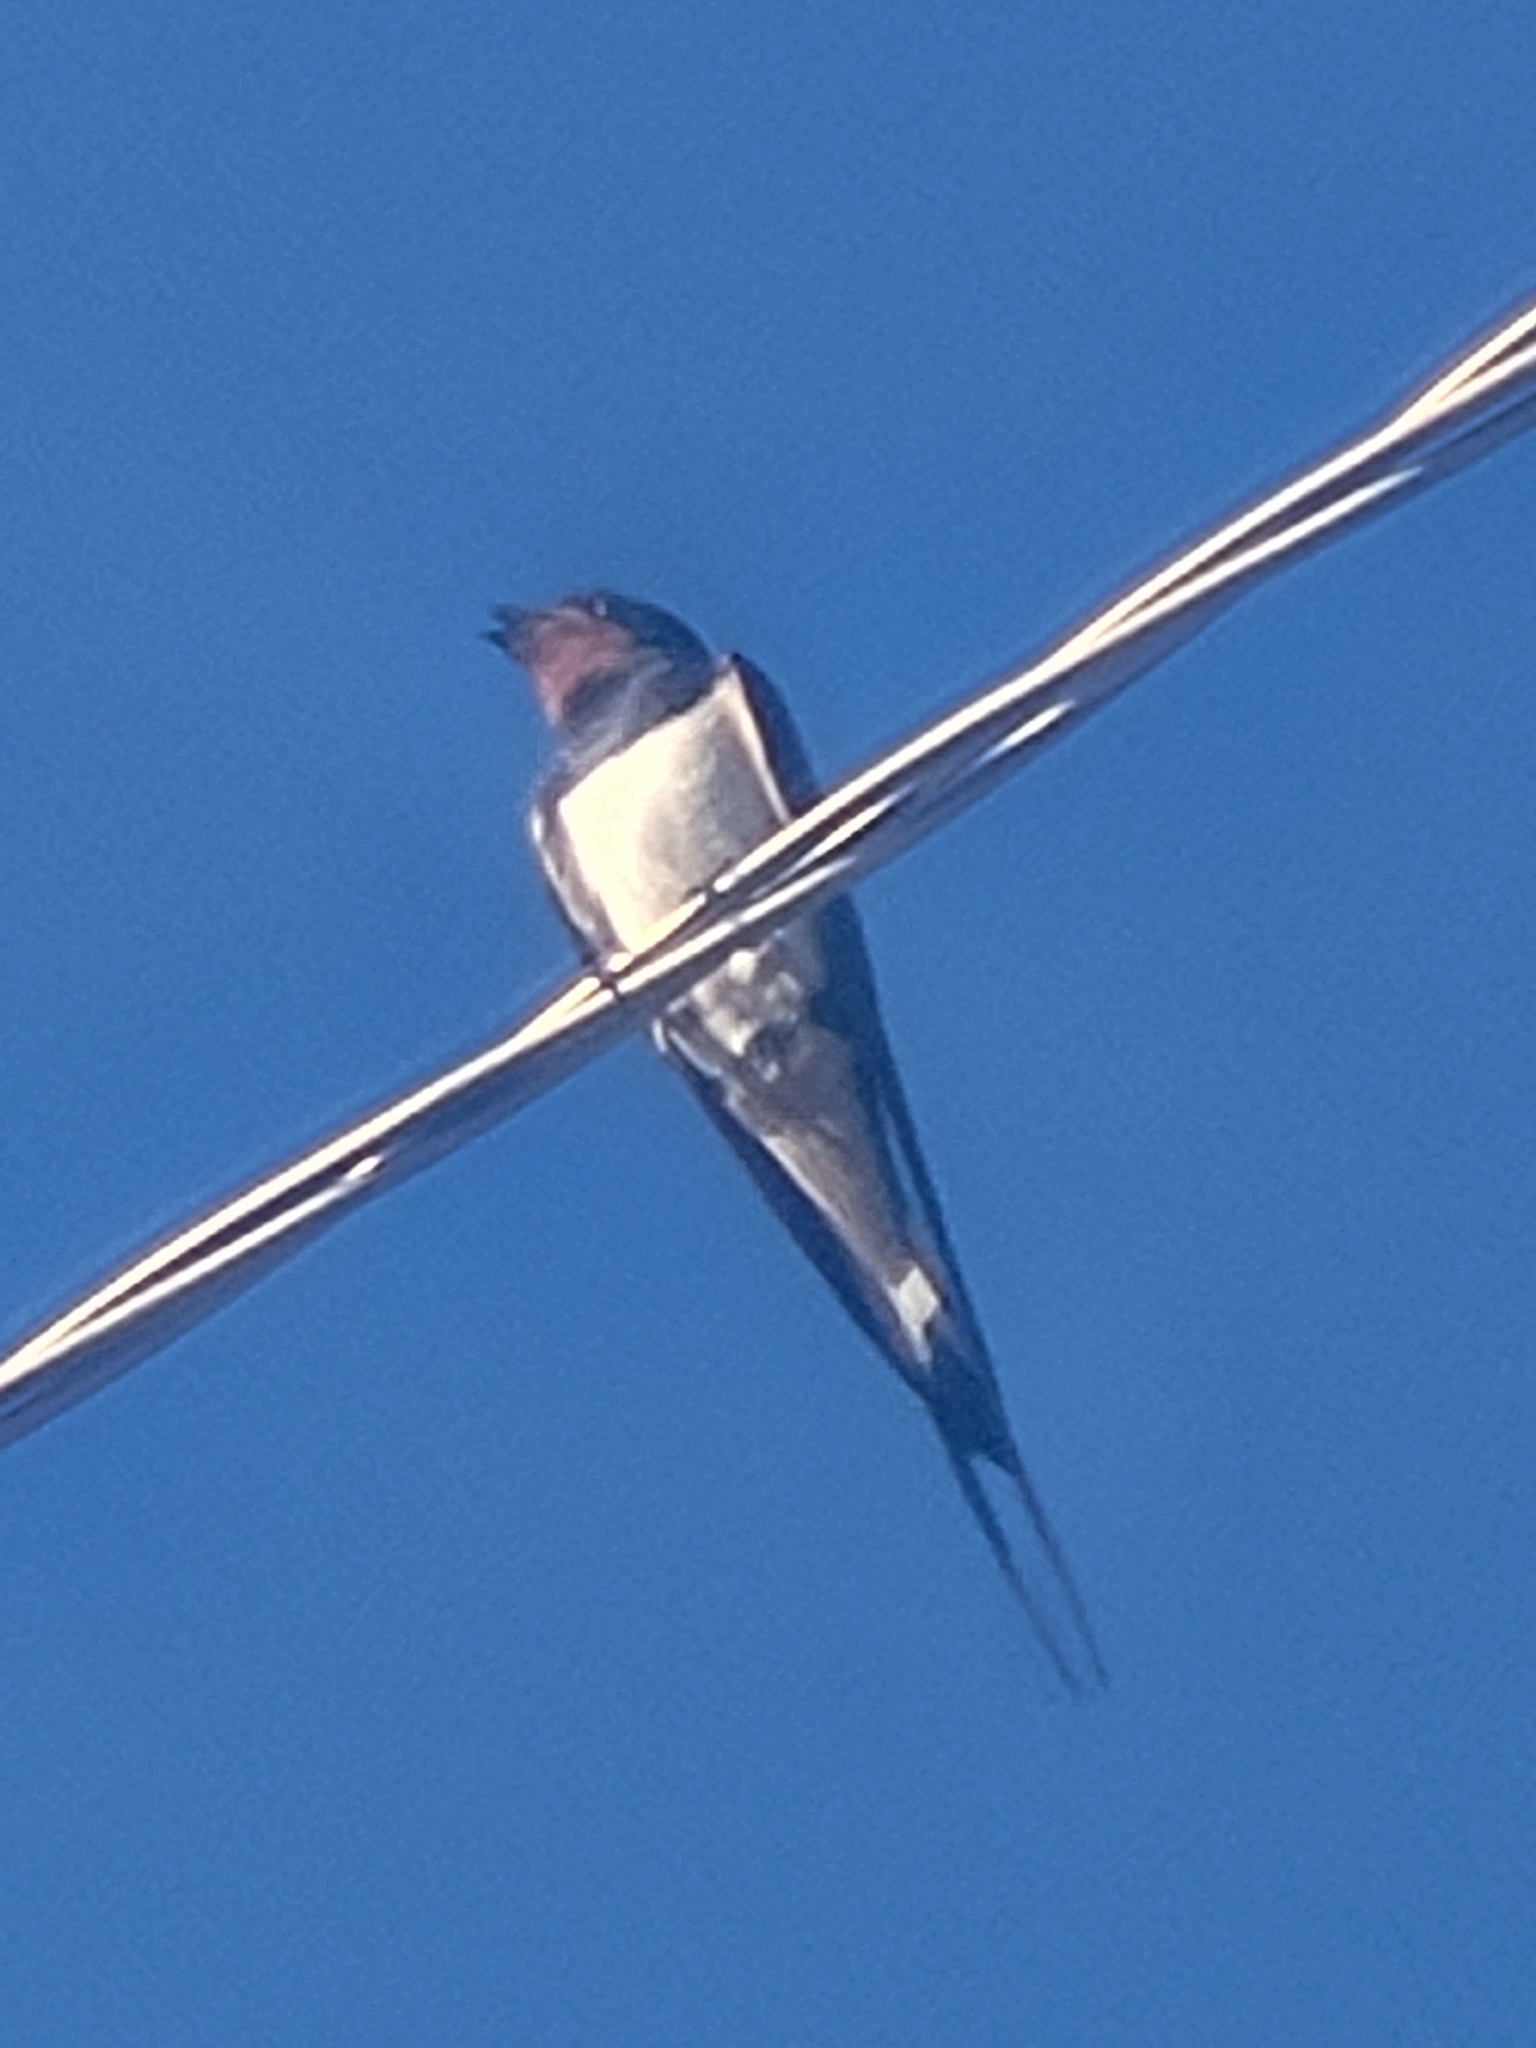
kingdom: Animalia
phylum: Chordata
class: Aves
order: Passeriformes
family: Hirundinidae
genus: Hirundo
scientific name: Hirundo rustica
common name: Barn swallow
